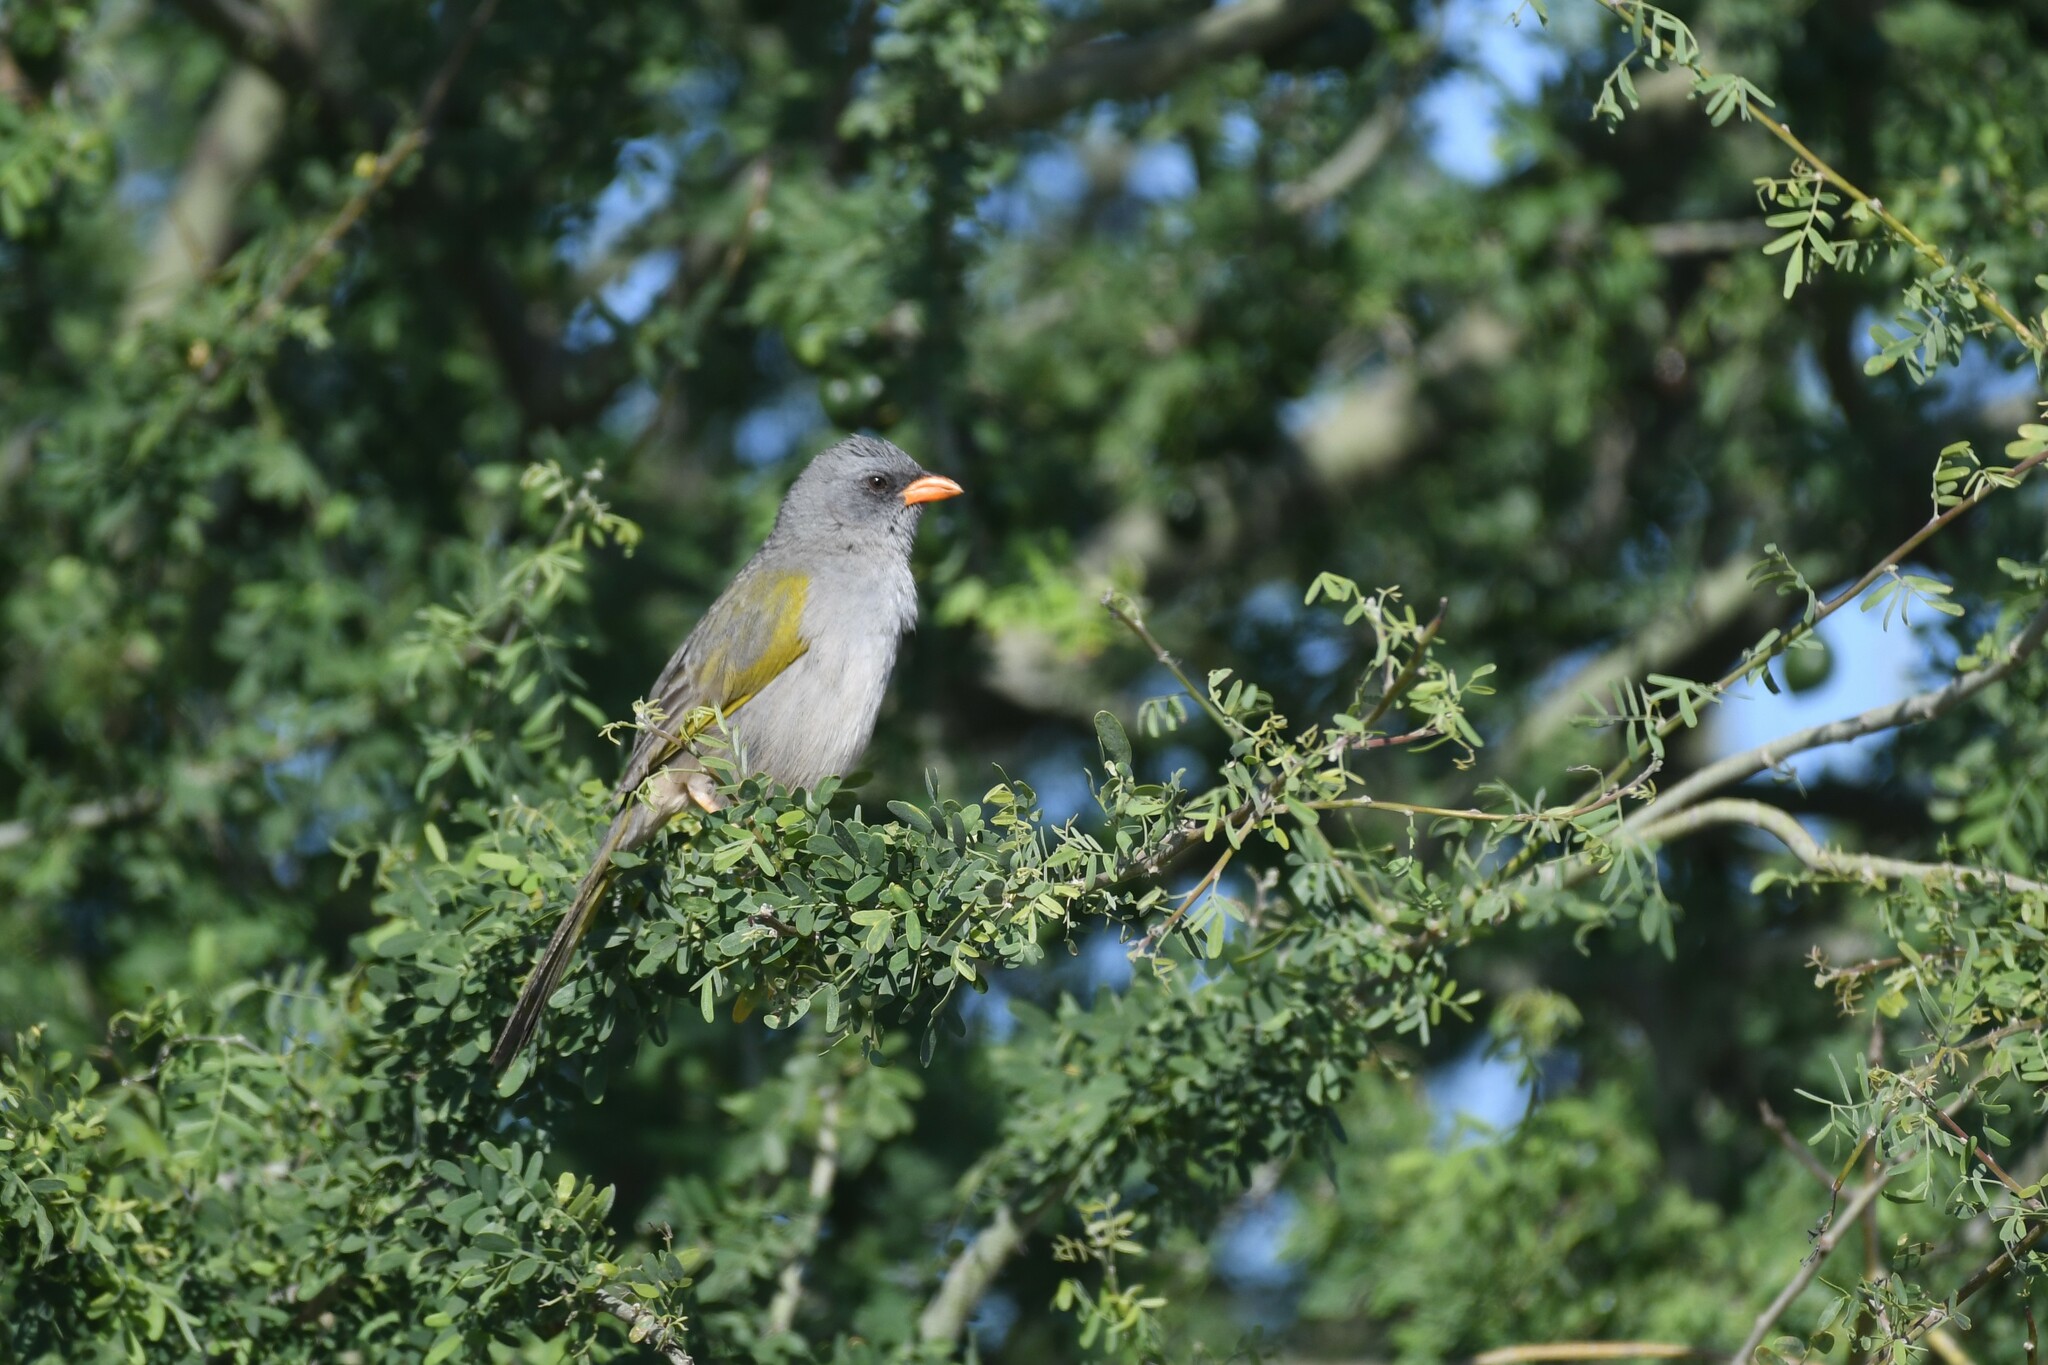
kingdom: Animalia
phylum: Chordata
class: Aves
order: Passeriformes
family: Thraupidae
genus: Embernagra
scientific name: Embernagra platensis
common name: Pampa finch
